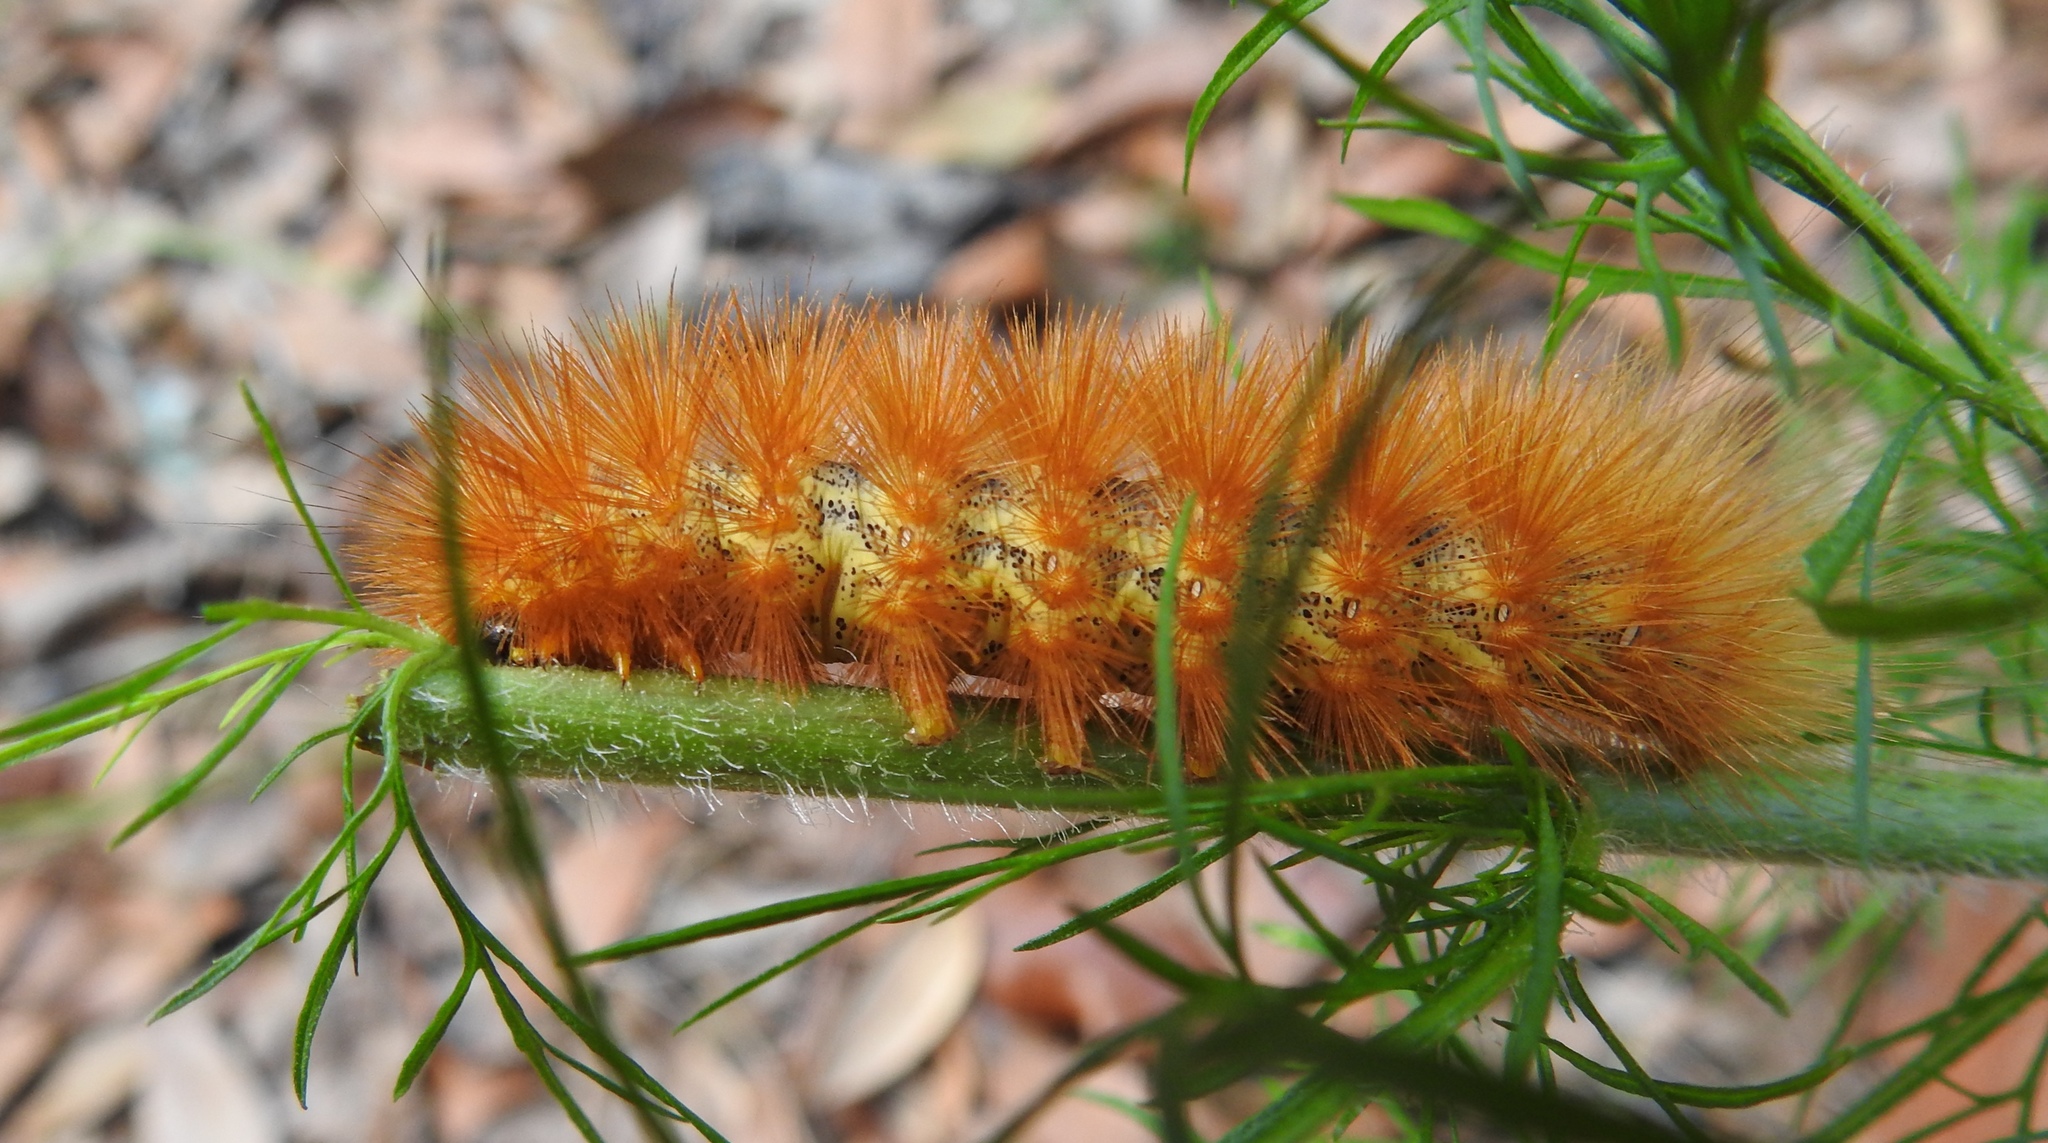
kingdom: Animalia
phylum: Arthropoda
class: Insecta
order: Lepidoptera
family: Erebidae
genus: Estigmene
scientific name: Estigmene acrea
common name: Salt marsh moth
